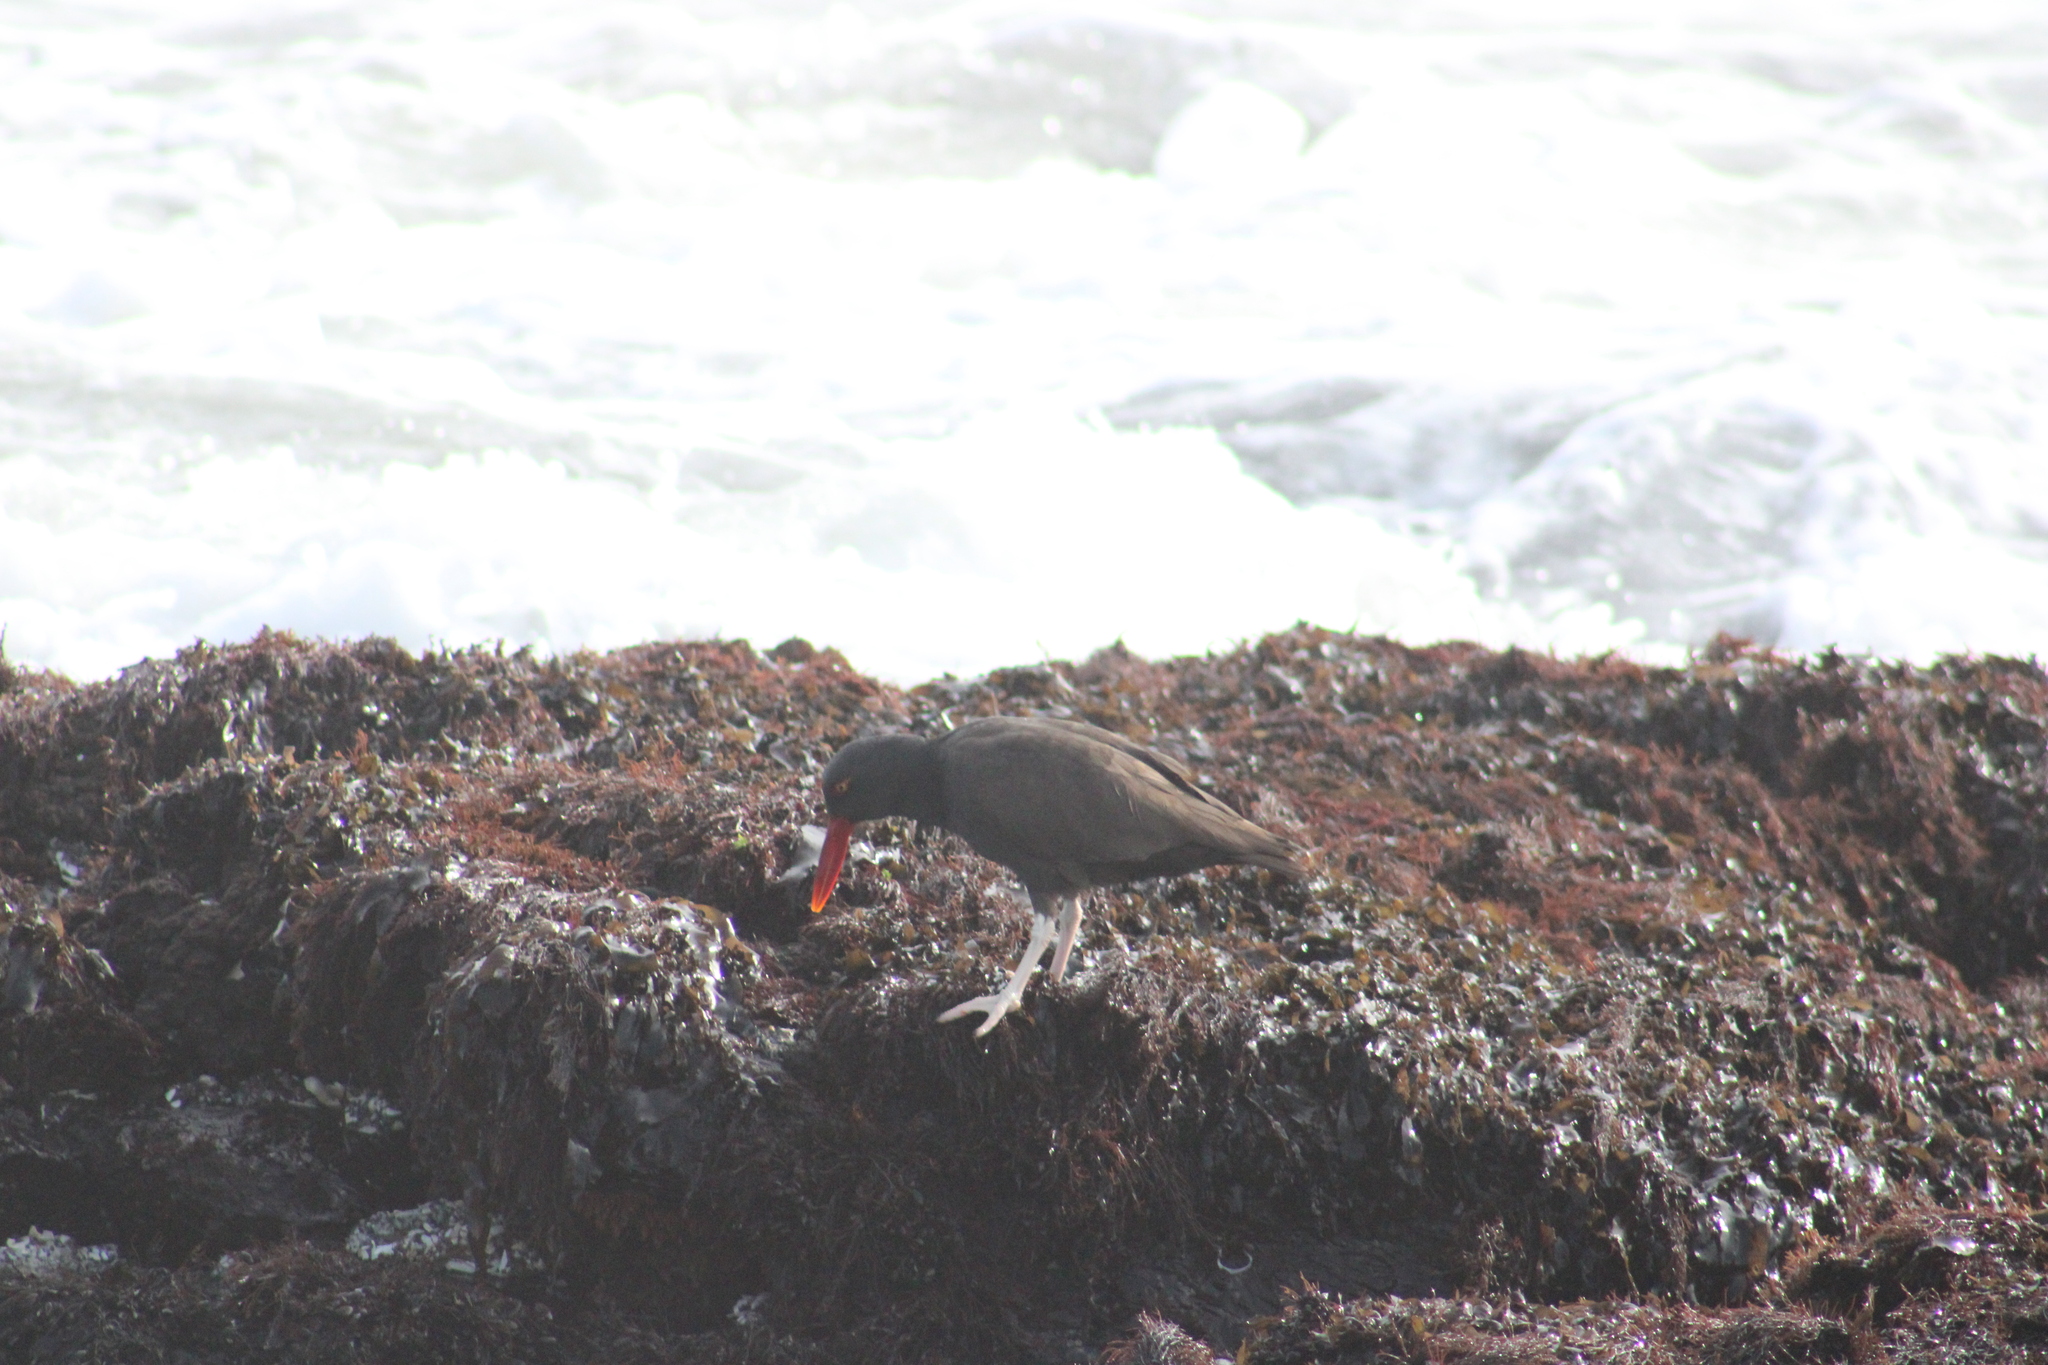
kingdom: Animalia
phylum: Chordata
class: Aves
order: Charadriiformes
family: Haematopodidae
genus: Haematopus
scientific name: Haematopus ater
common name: Blackish oystercatcher
